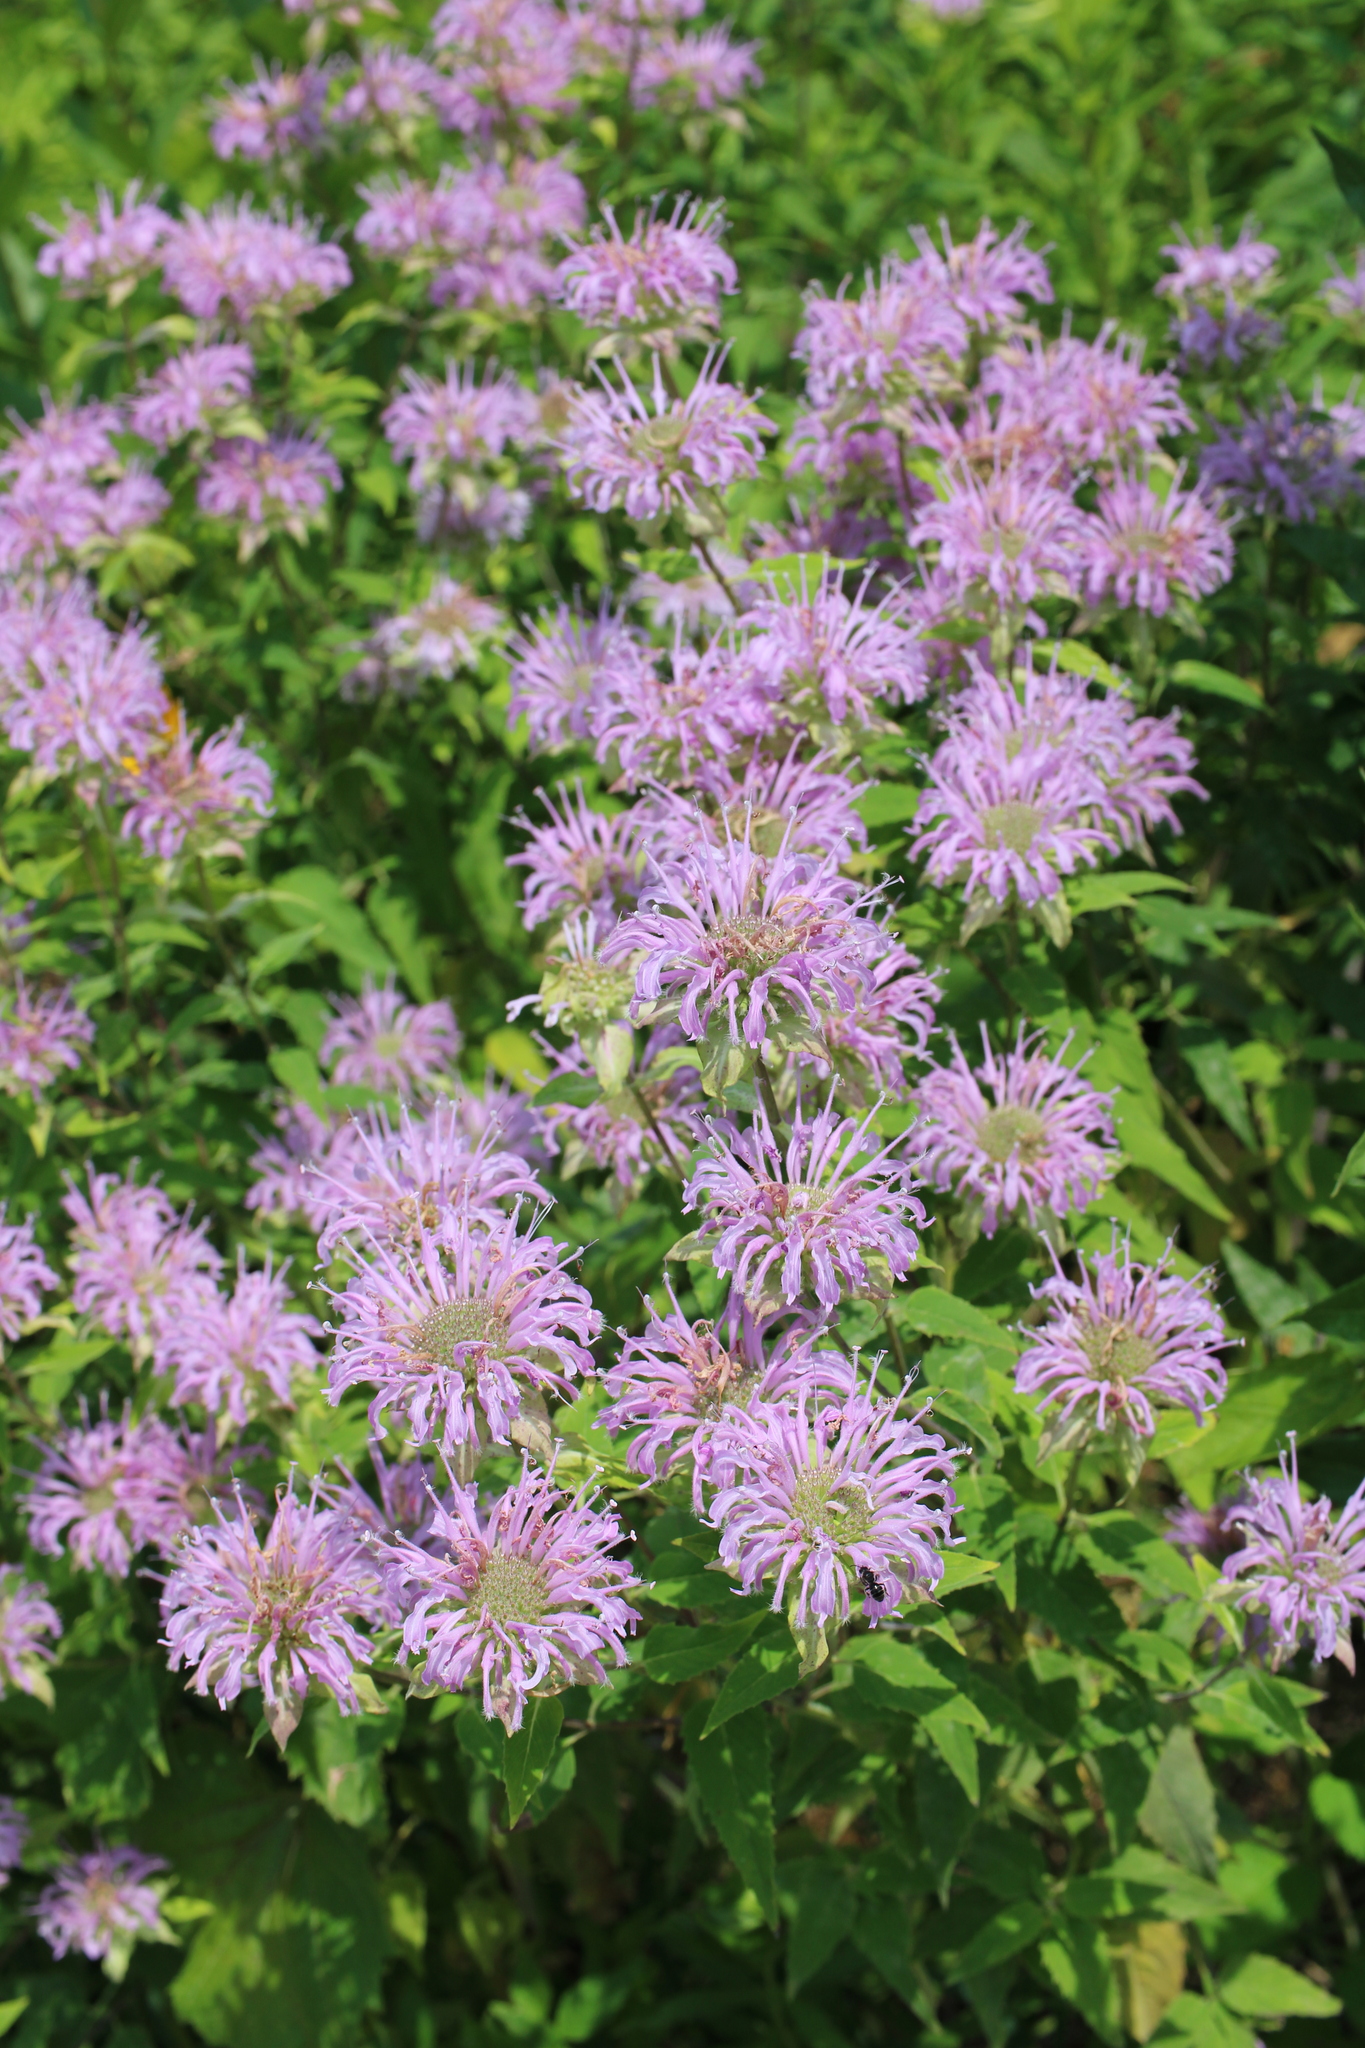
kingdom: Plantae
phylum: Tracheophyta
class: Magnoliopsida
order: Lamiales
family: Lamiaceae
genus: Monarda
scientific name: Monarda fistulosa
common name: Purple beebalm
